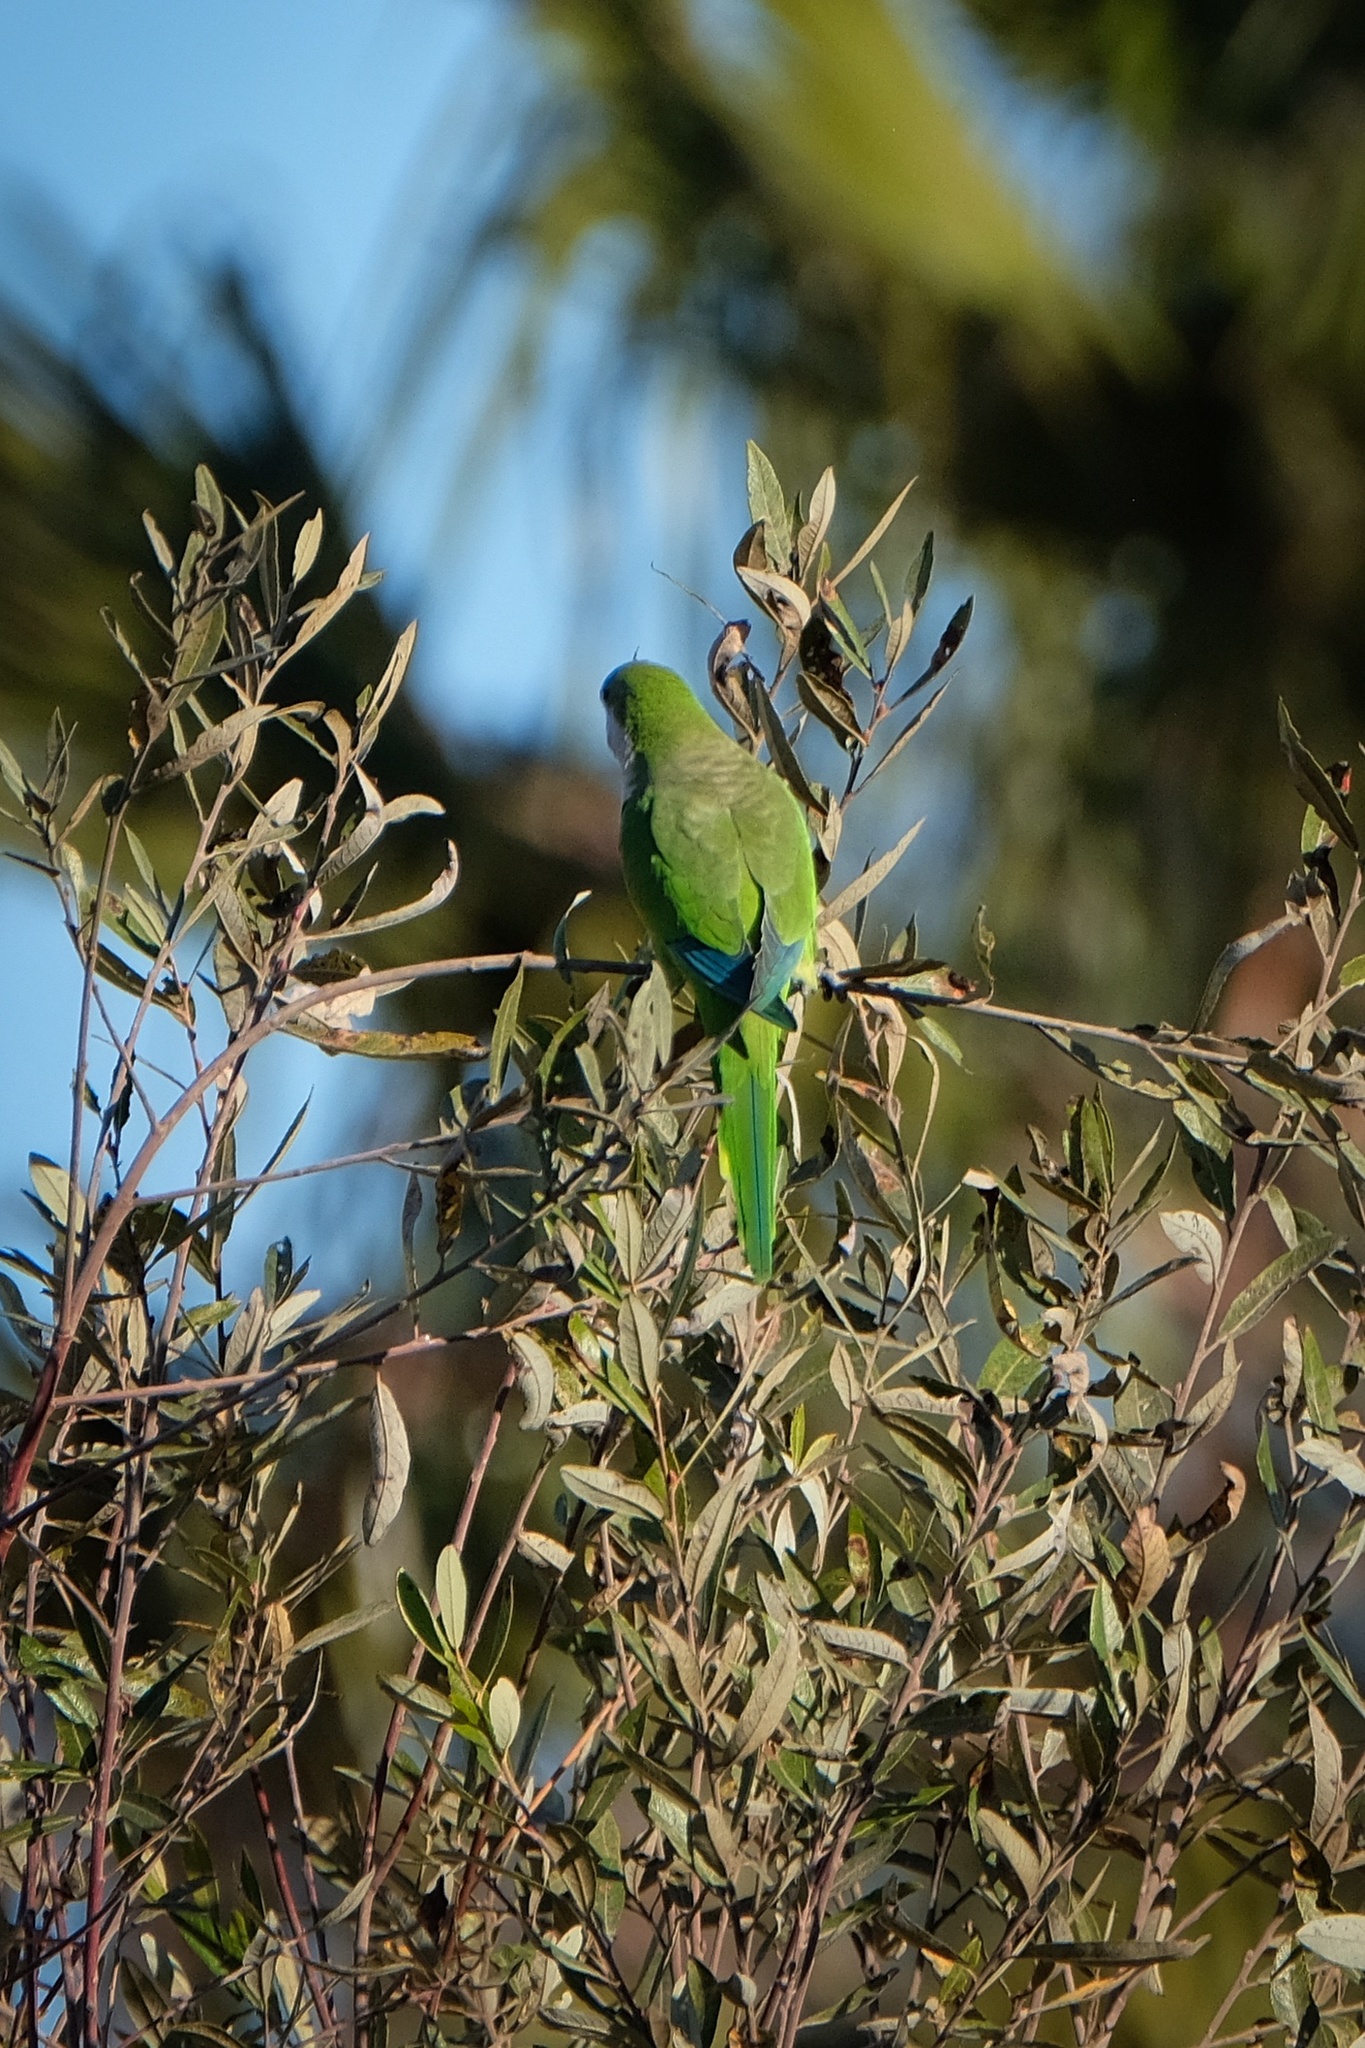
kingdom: Animalia
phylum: Chordata
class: Aves
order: Psittaciformes
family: Psittacidae
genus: Myiopsitta
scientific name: Myiopsitta monachus
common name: Monk parakeet
